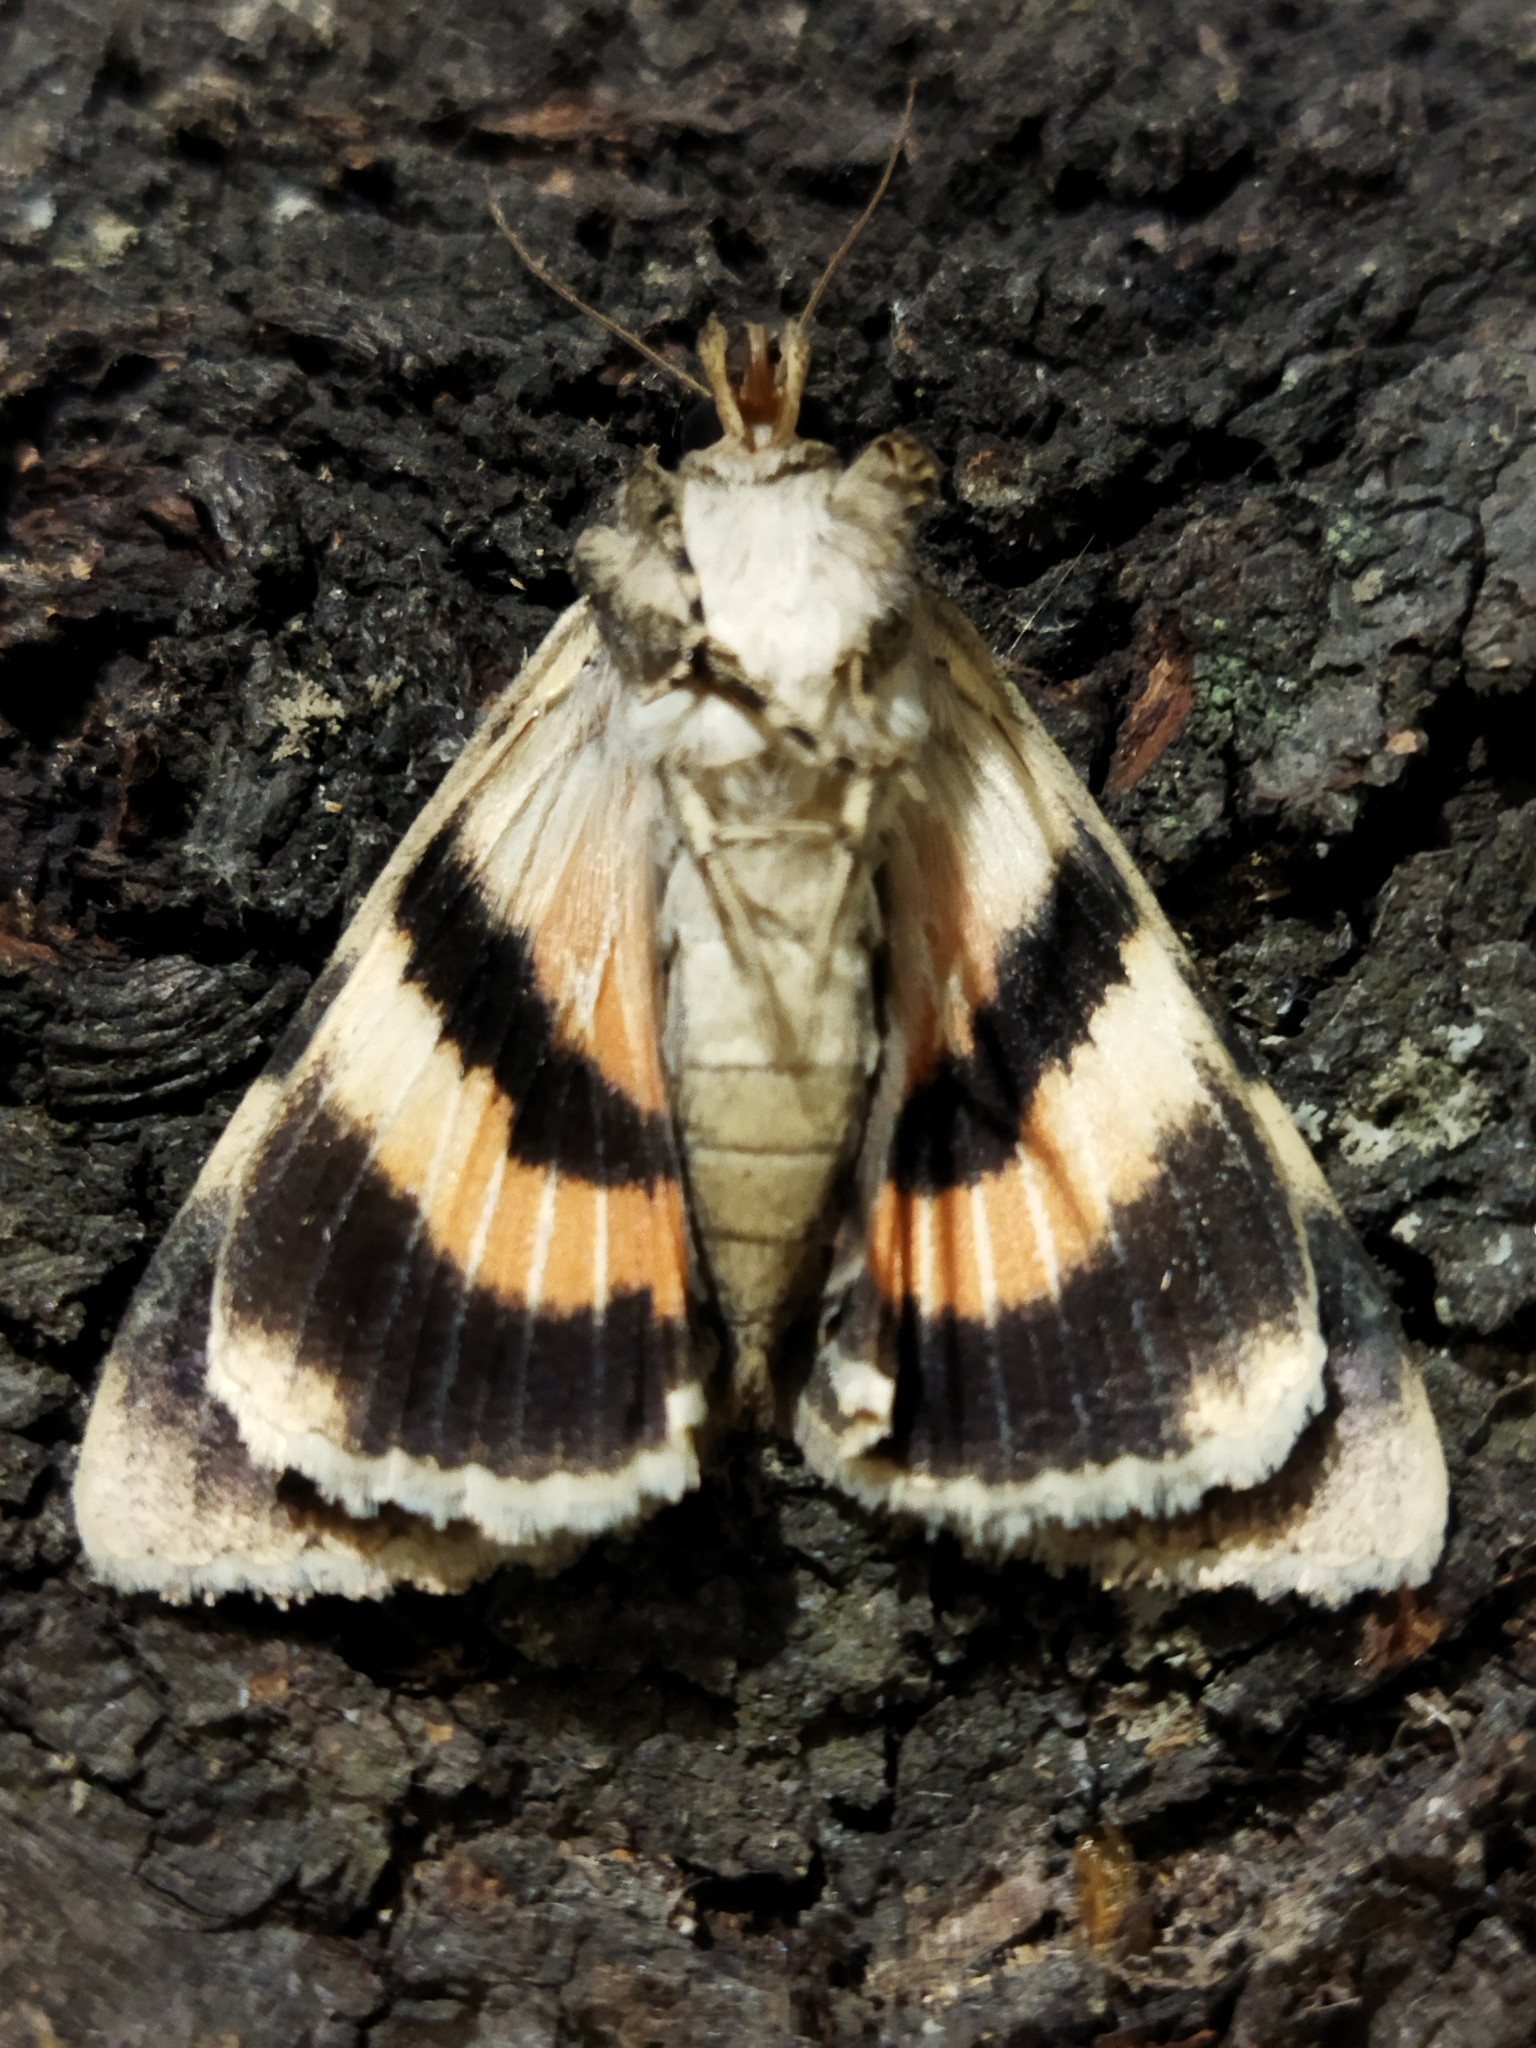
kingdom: Animalia
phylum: Arthropoda
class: Insecta
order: Lepidoptera
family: Erebidae
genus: Catocala
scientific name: Catocala puerpera
